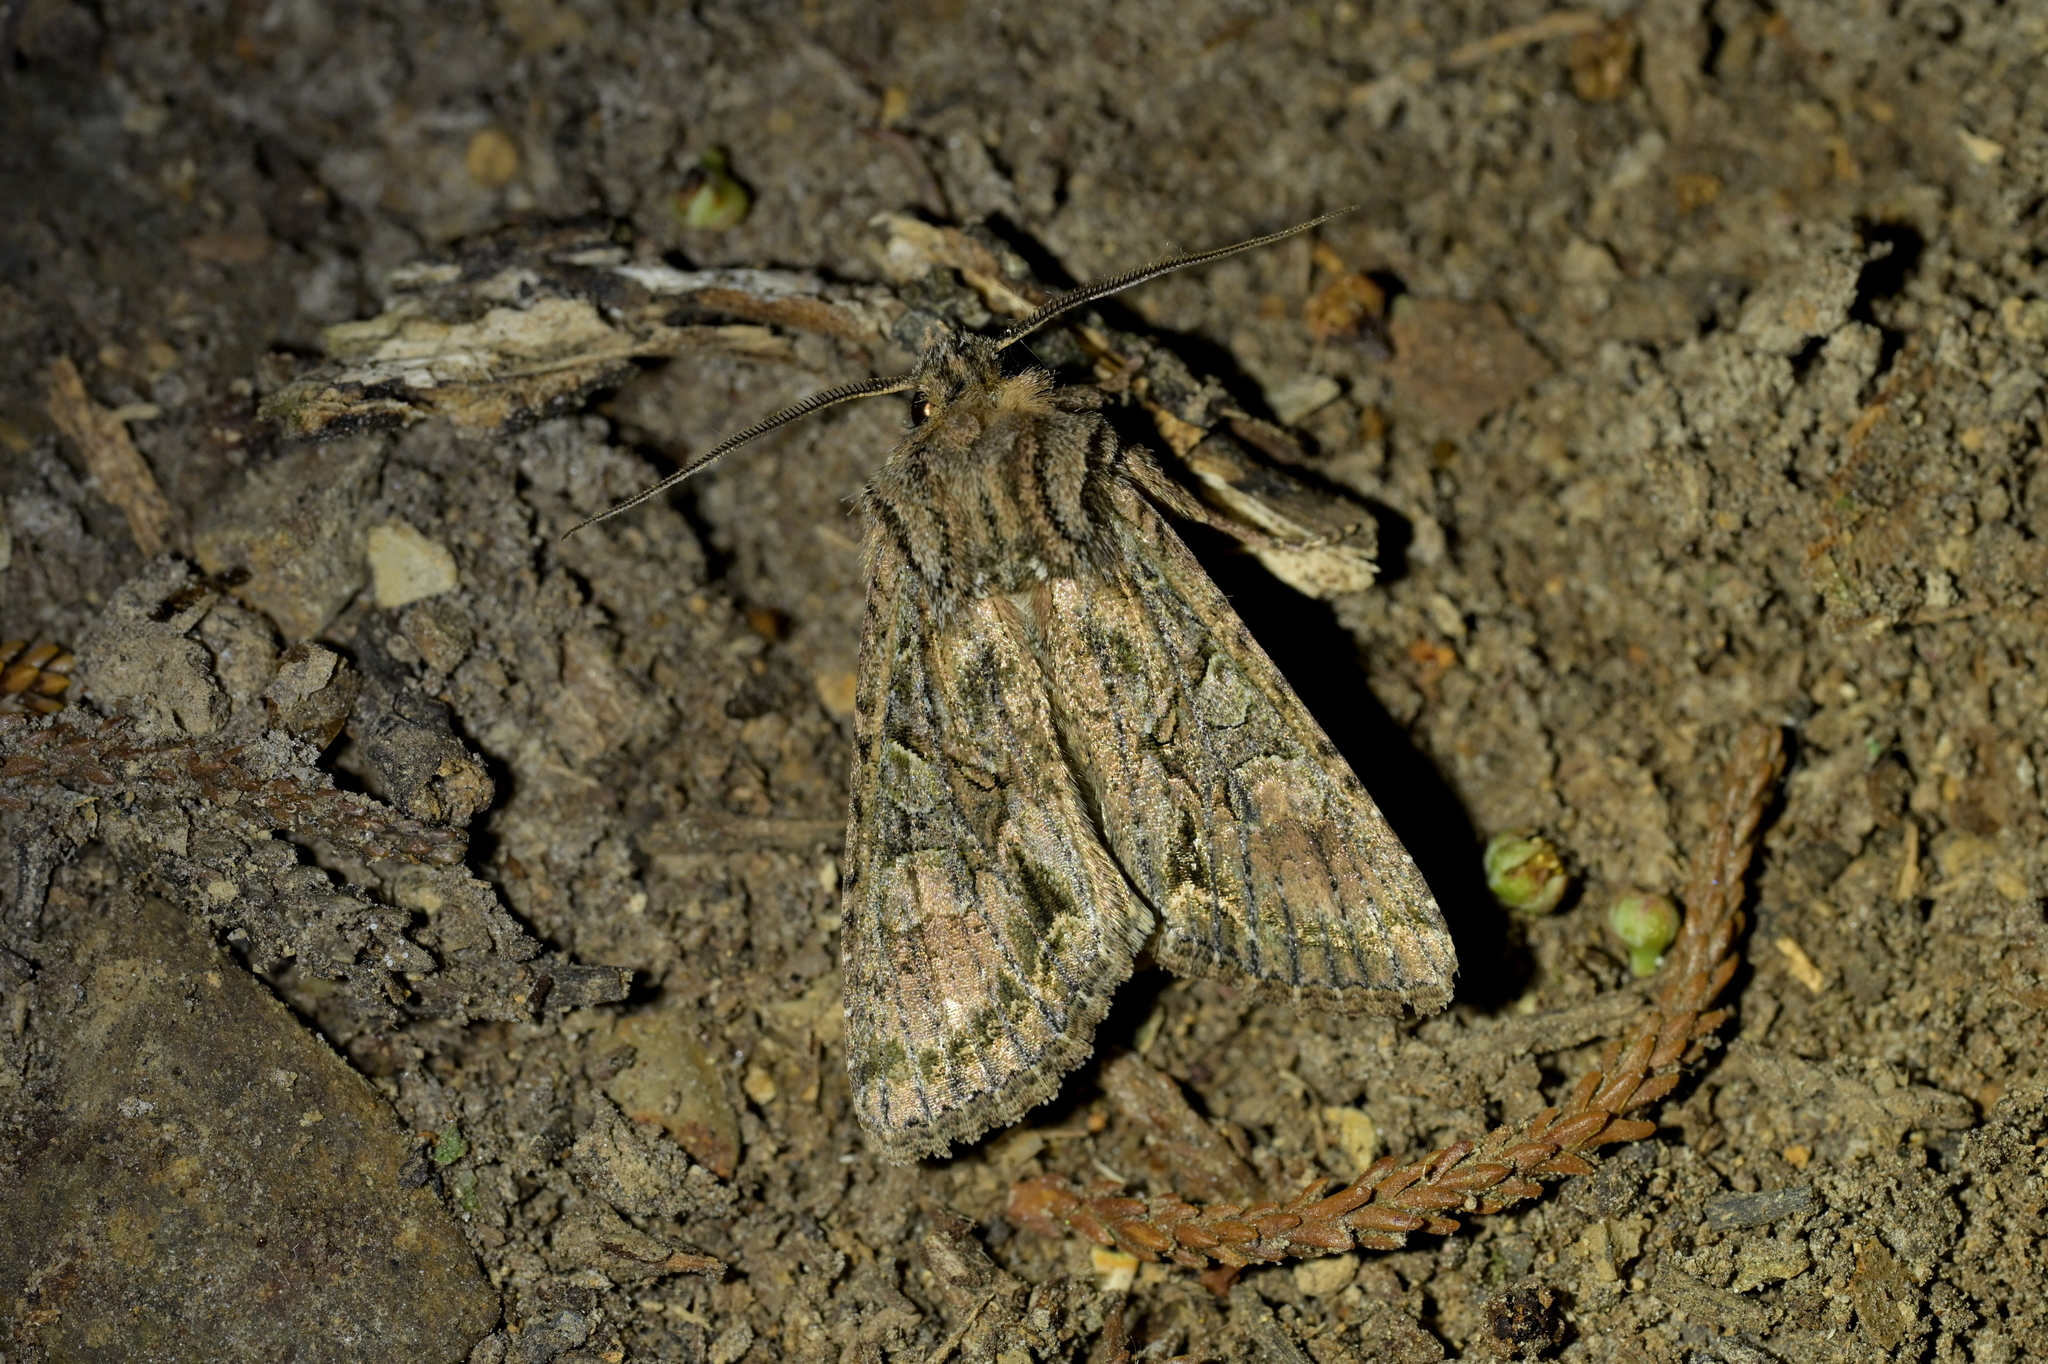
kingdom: Animalia
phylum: Arthropoda
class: Insecta
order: Lepidoptera
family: Noctuidae
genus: Ichneutica
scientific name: Ichneutica mutans
